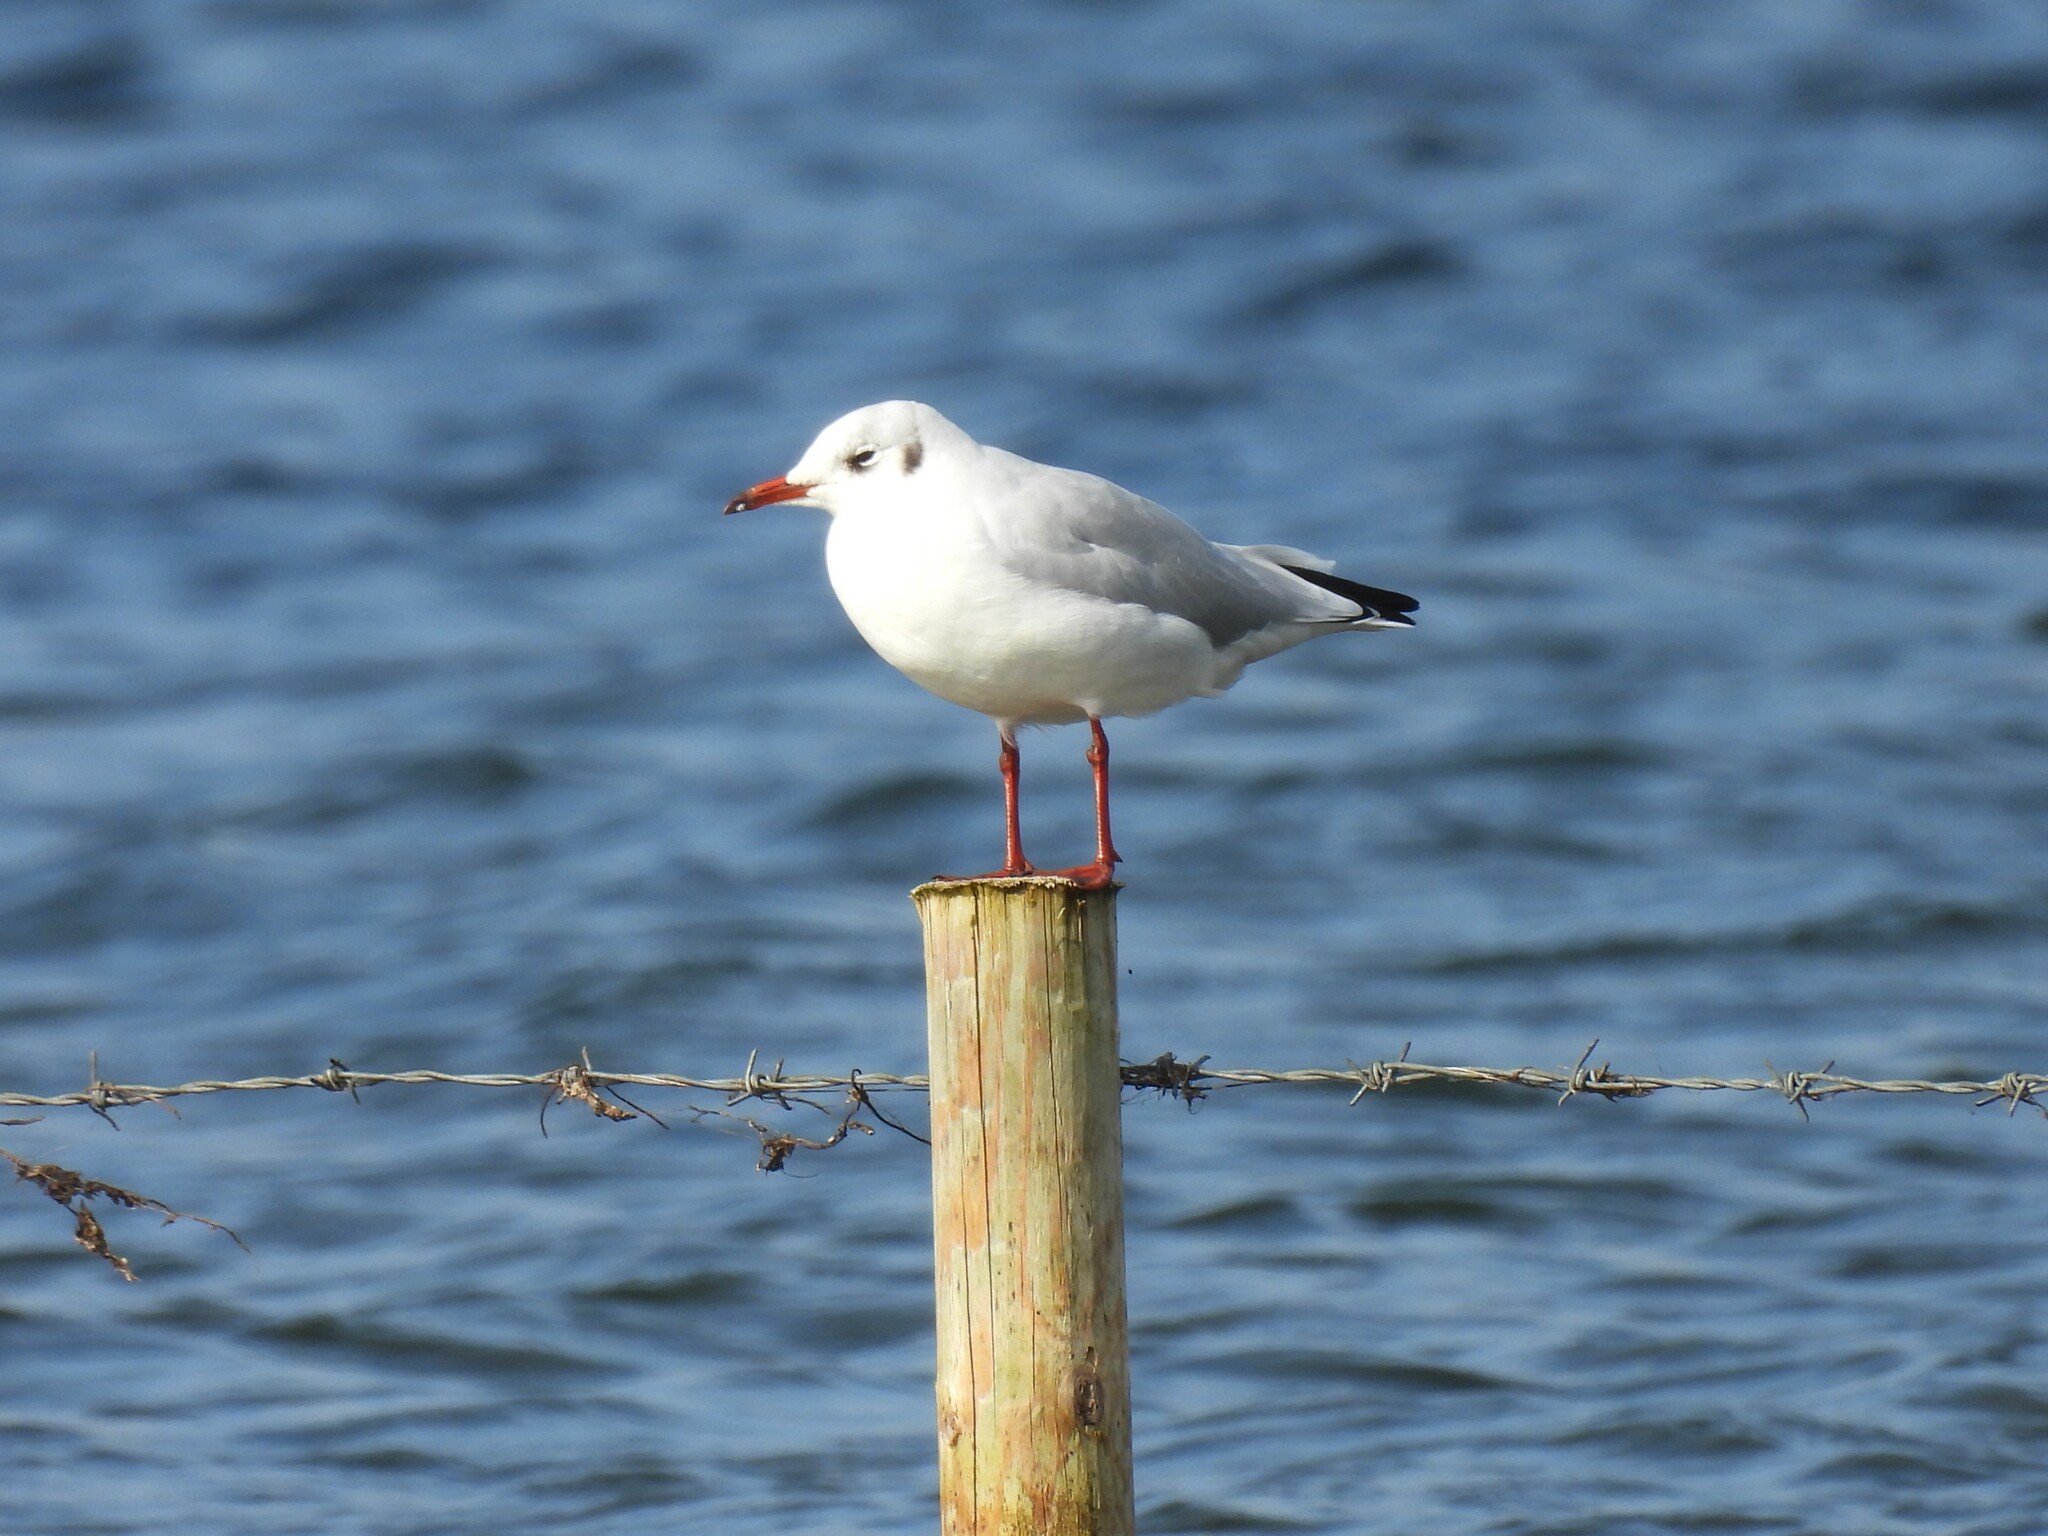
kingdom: Animalia
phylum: Chordata
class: Aves
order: Charadriiformes
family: Laridae
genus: Chroicocephalus
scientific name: Chroicocephalus ridibundus
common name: Black-headed gull
